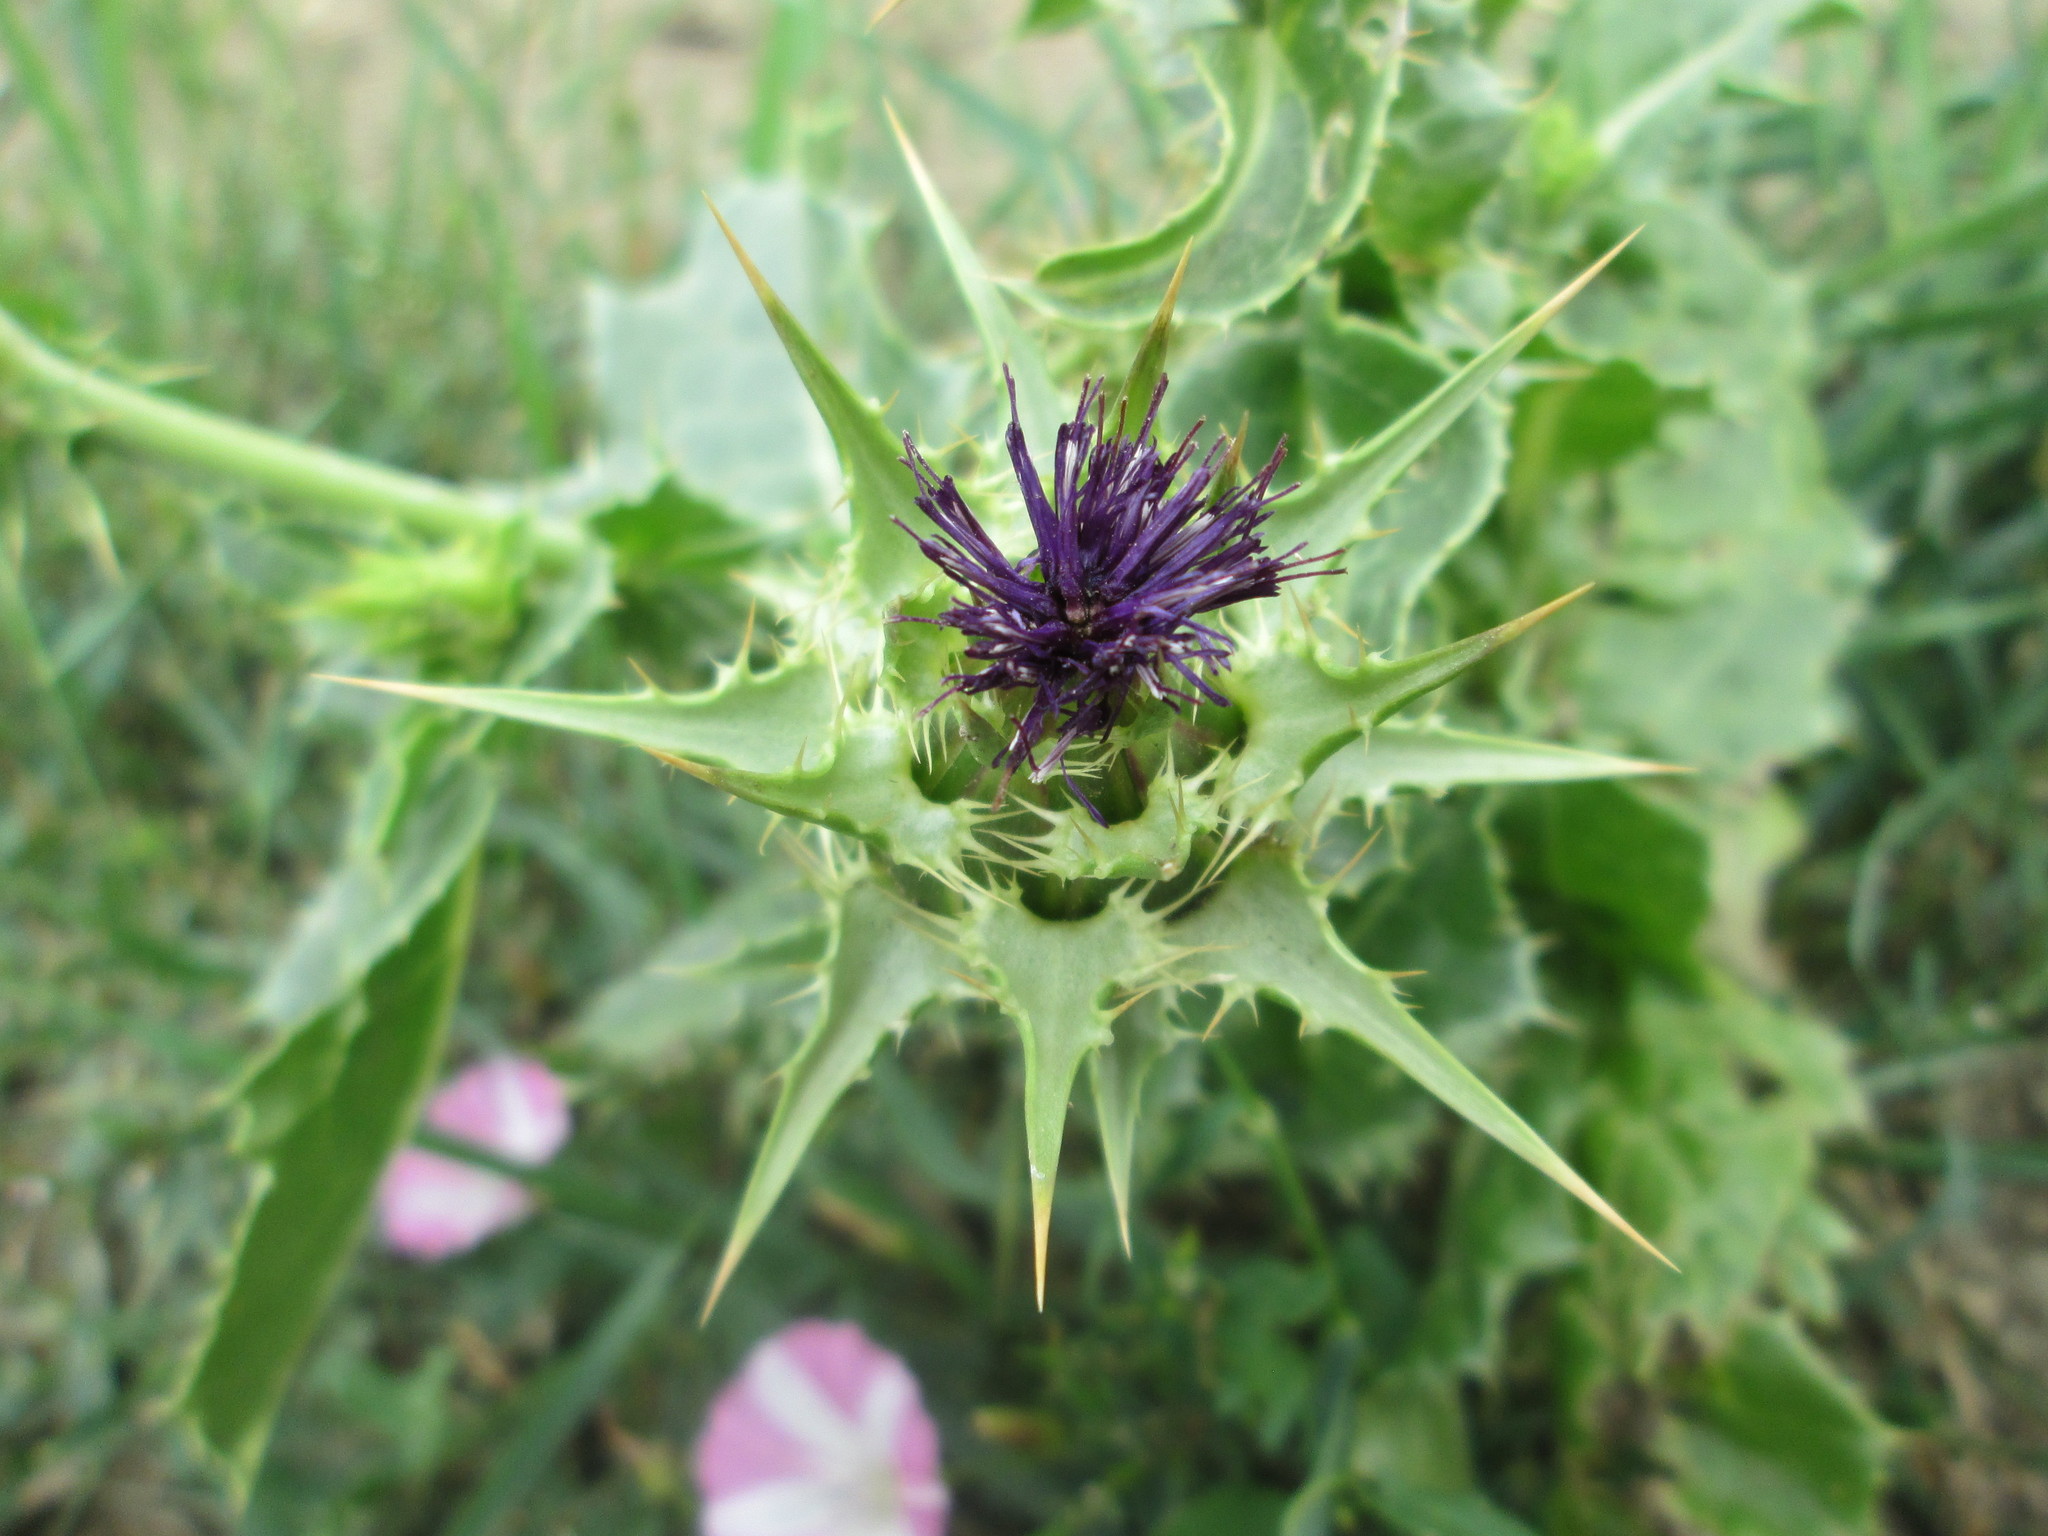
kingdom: Plantae
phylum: Tracheophyta
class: Magnoliopsida
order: Asterales
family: Asteraceae
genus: Silybum
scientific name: Silybum marianum
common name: Milk thistle
